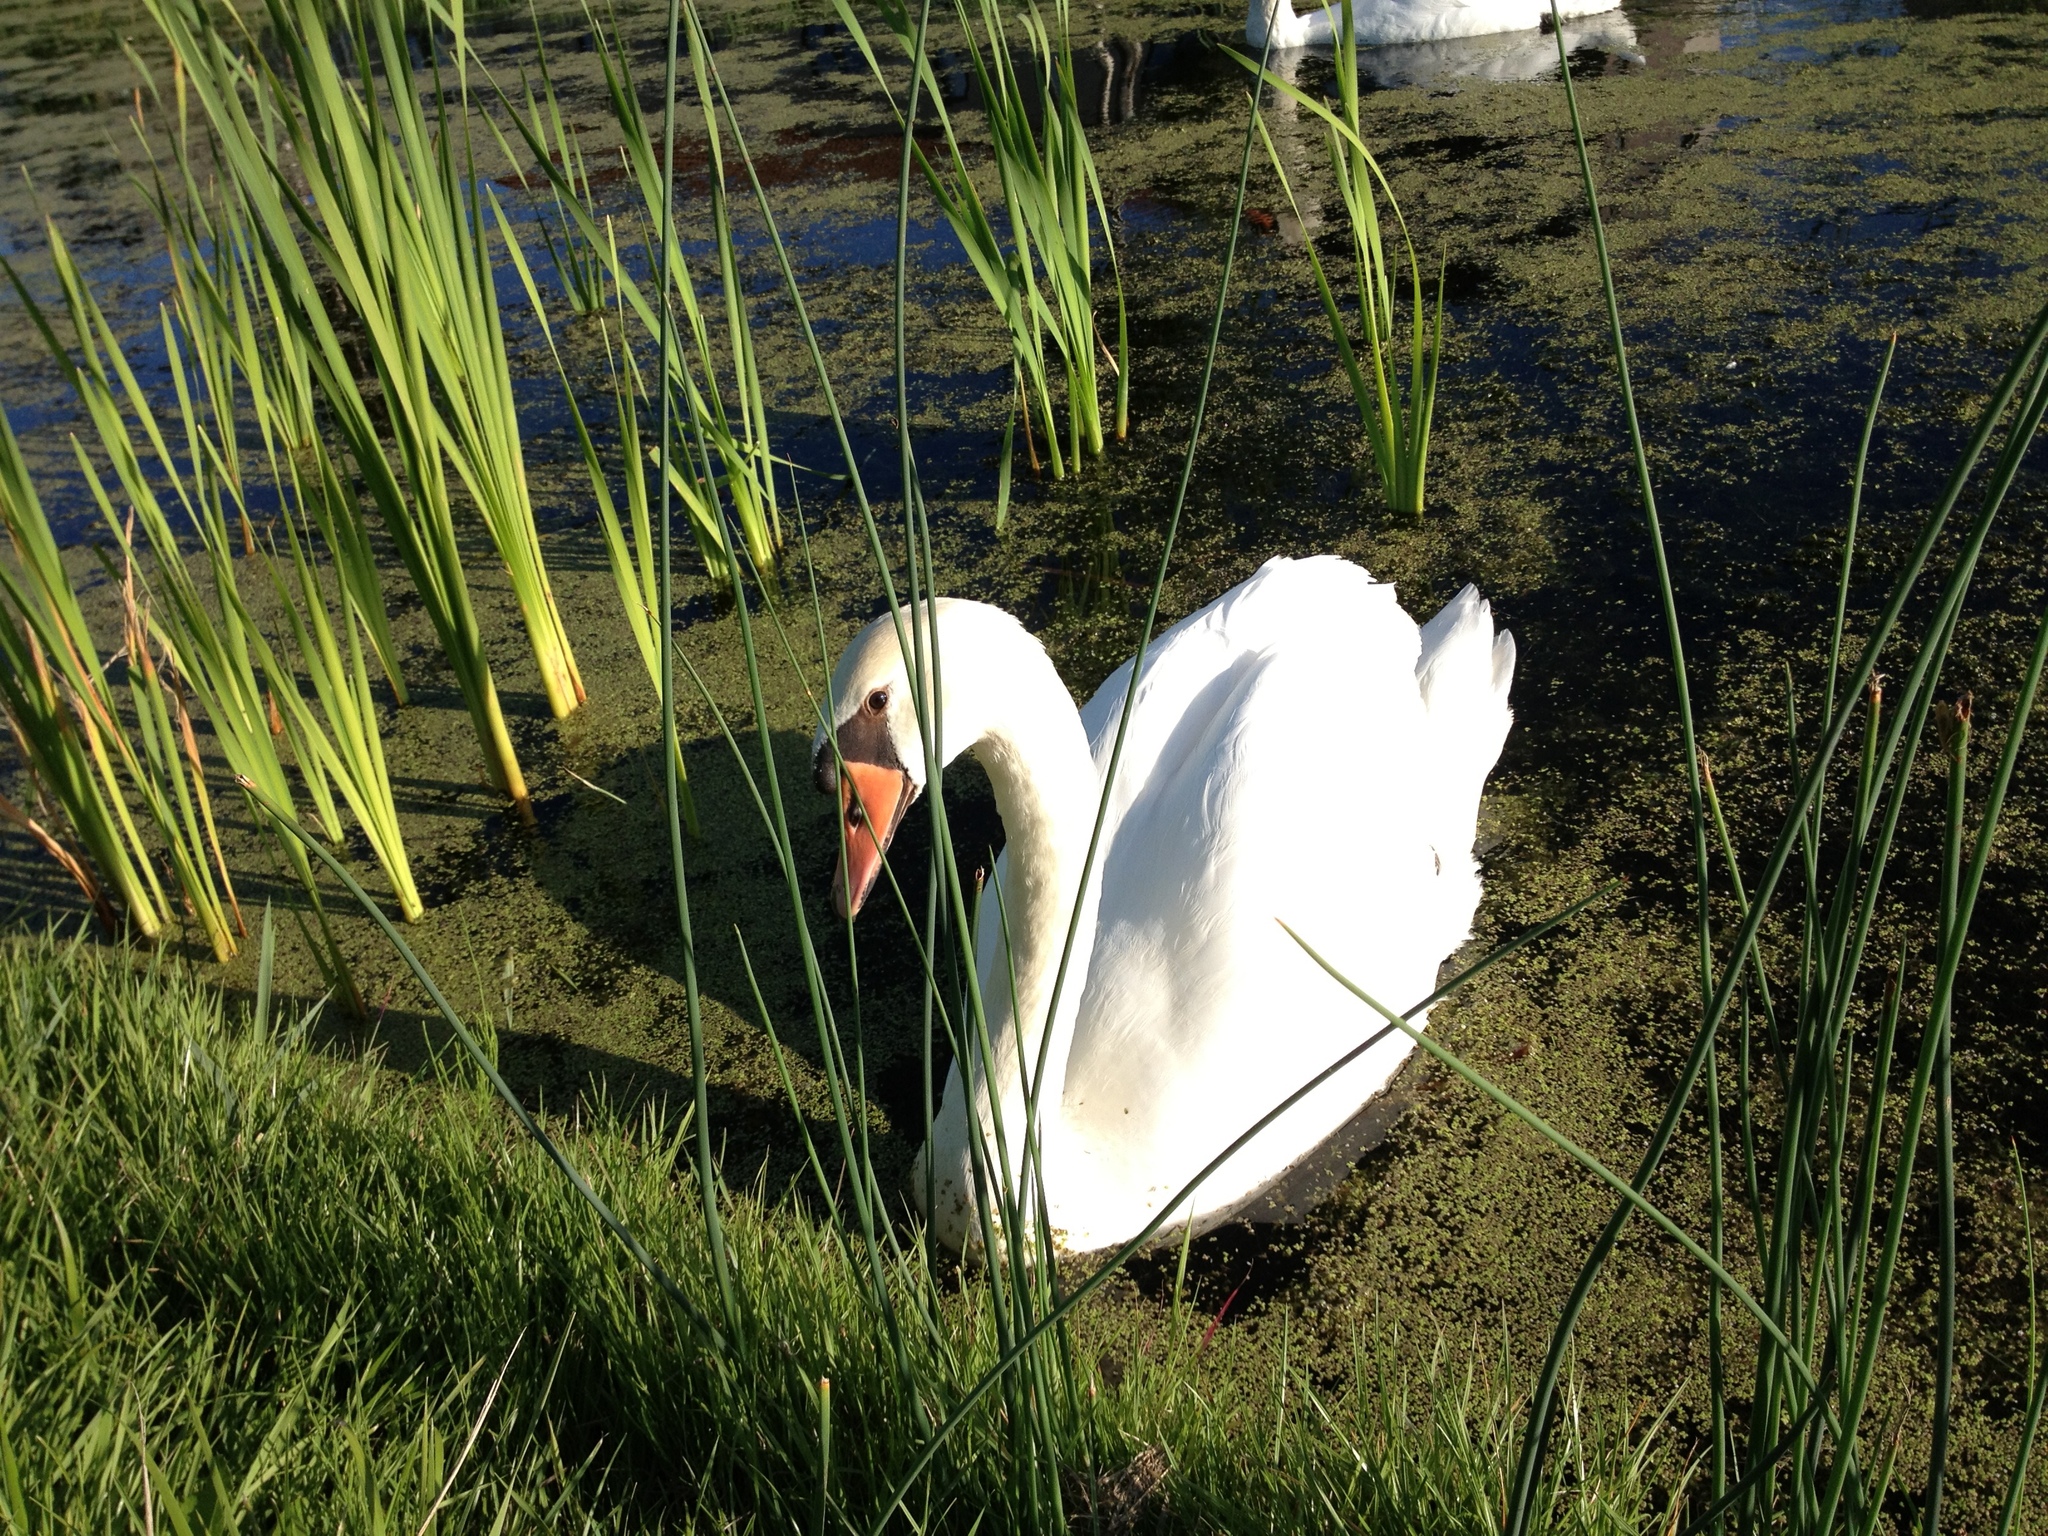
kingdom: Animalia
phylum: Chordata
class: Aves
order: Anseriformes
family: Anatidae
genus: Cygnus
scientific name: Cygnus olor
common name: Mute swan
